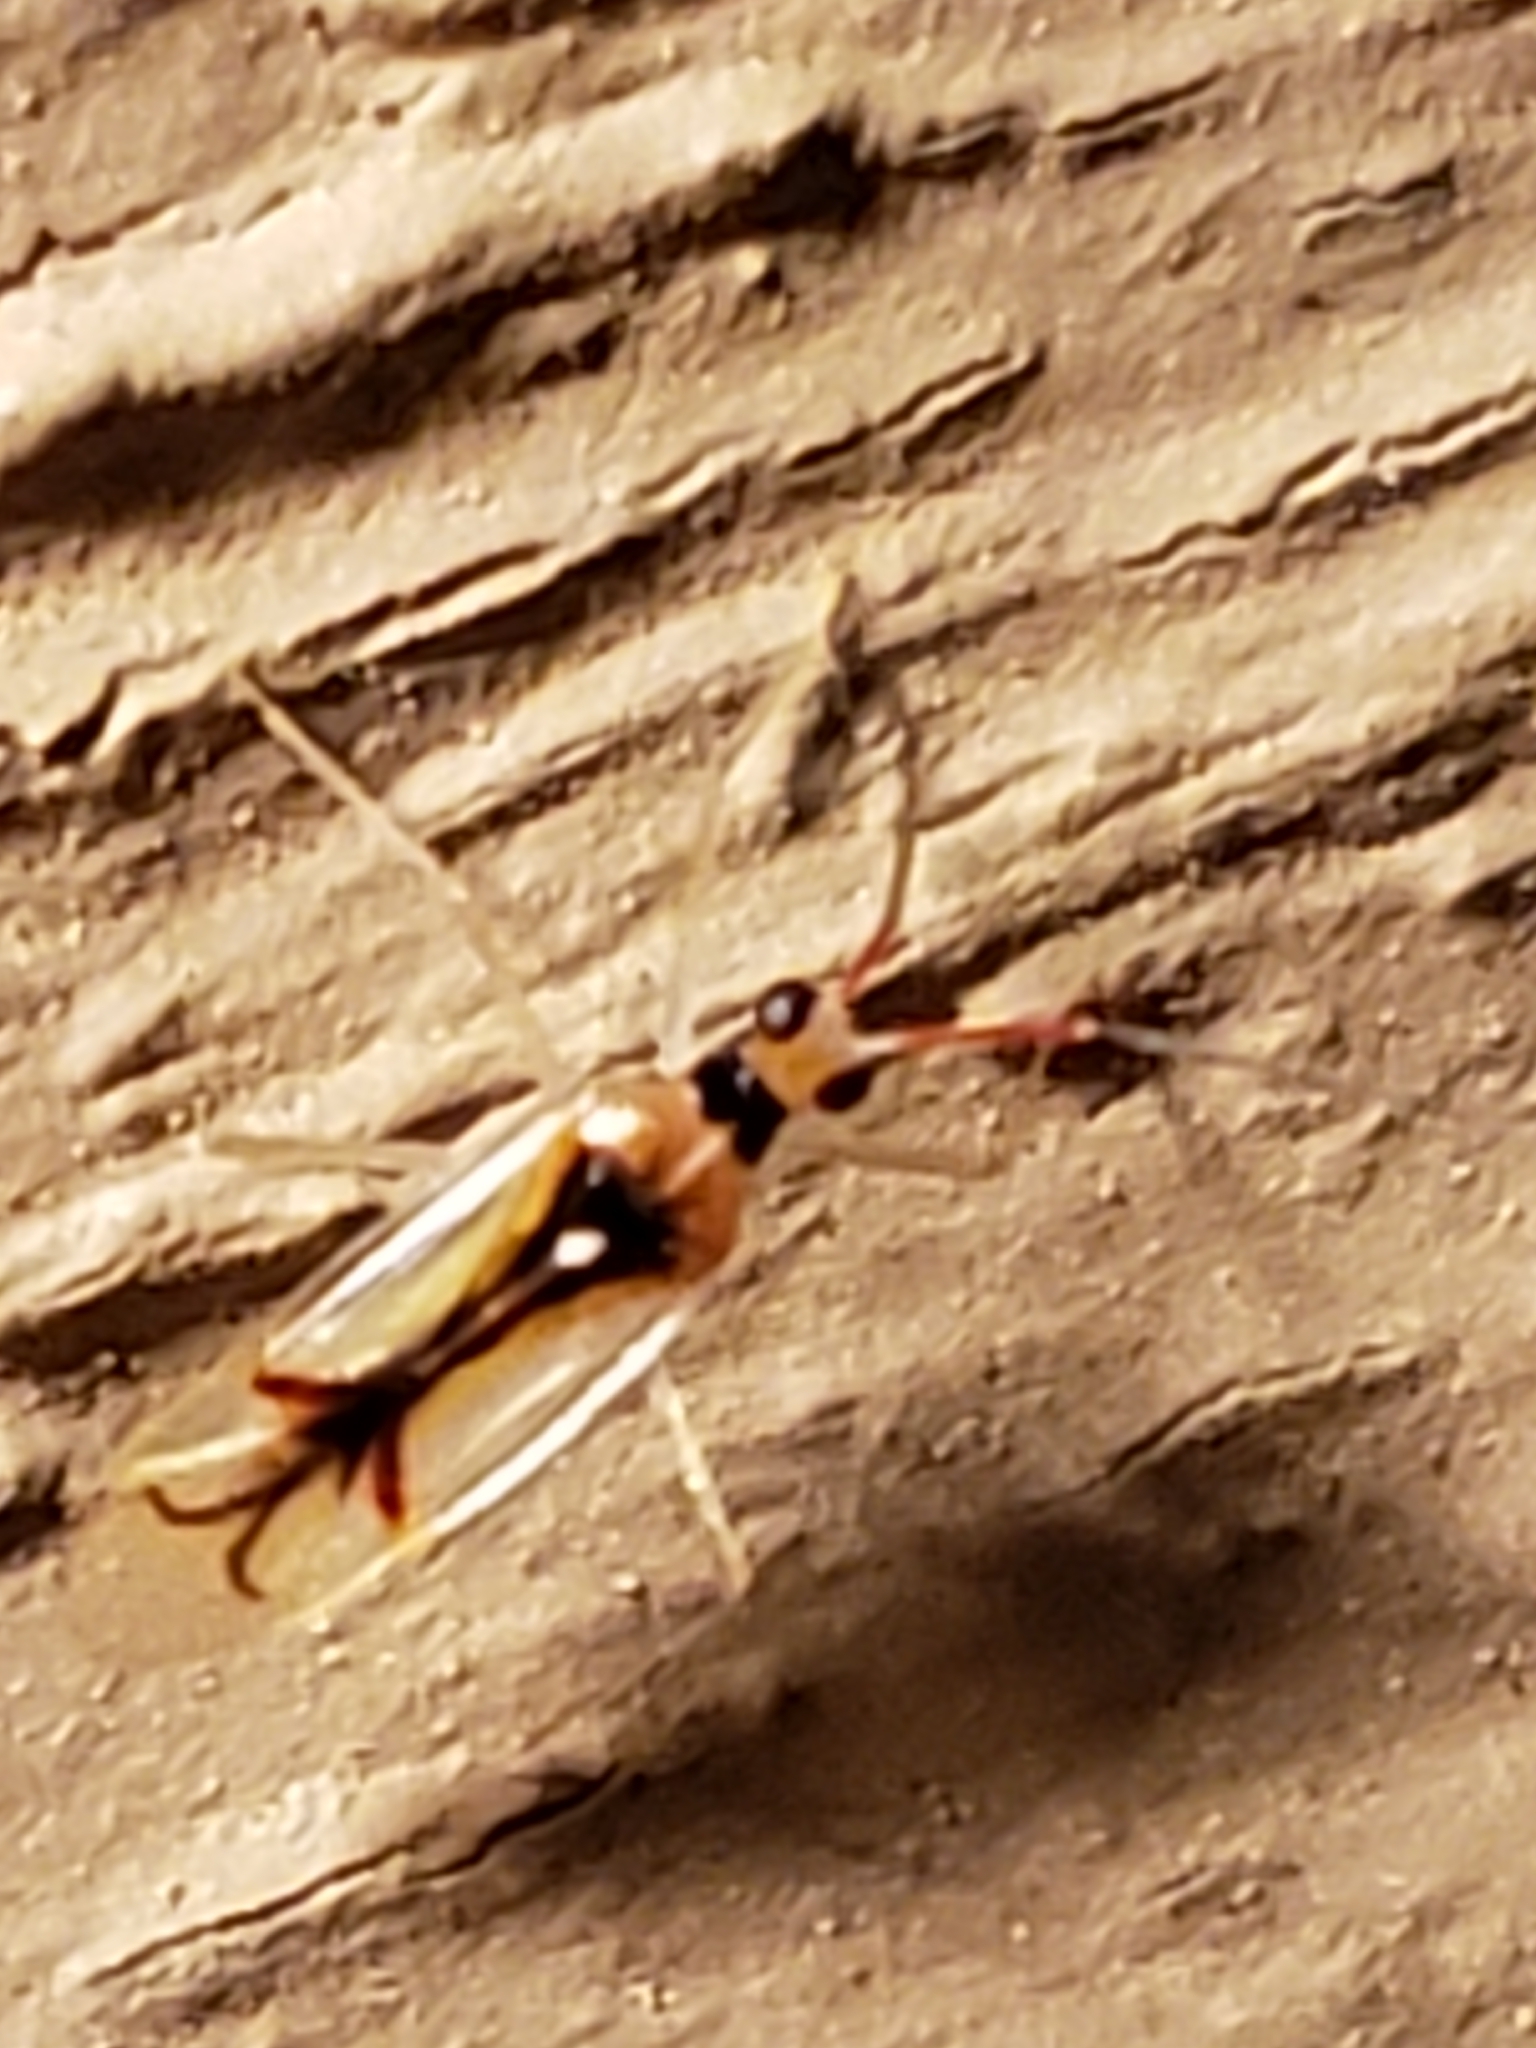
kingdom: Animalia
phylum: Arthropoda
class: Insecta
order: Hemiptera
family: Miridae
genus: Hyaliodes
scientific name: Hyaliodes harti
